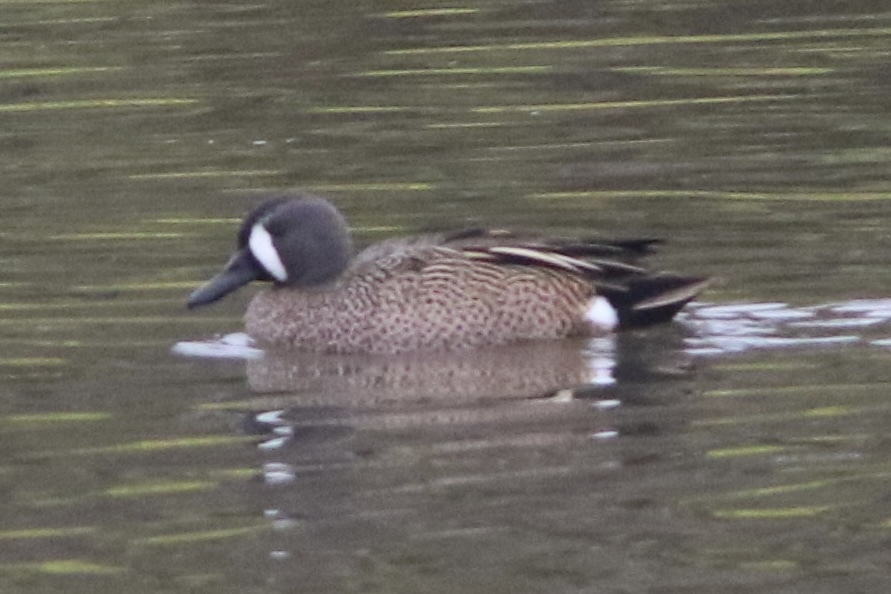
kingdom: Animalia
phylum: Chordata
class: Aves
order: Anseriformes
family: Anatidae
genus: Spatula
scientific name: Spatula discors
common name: Blue-winged teal
